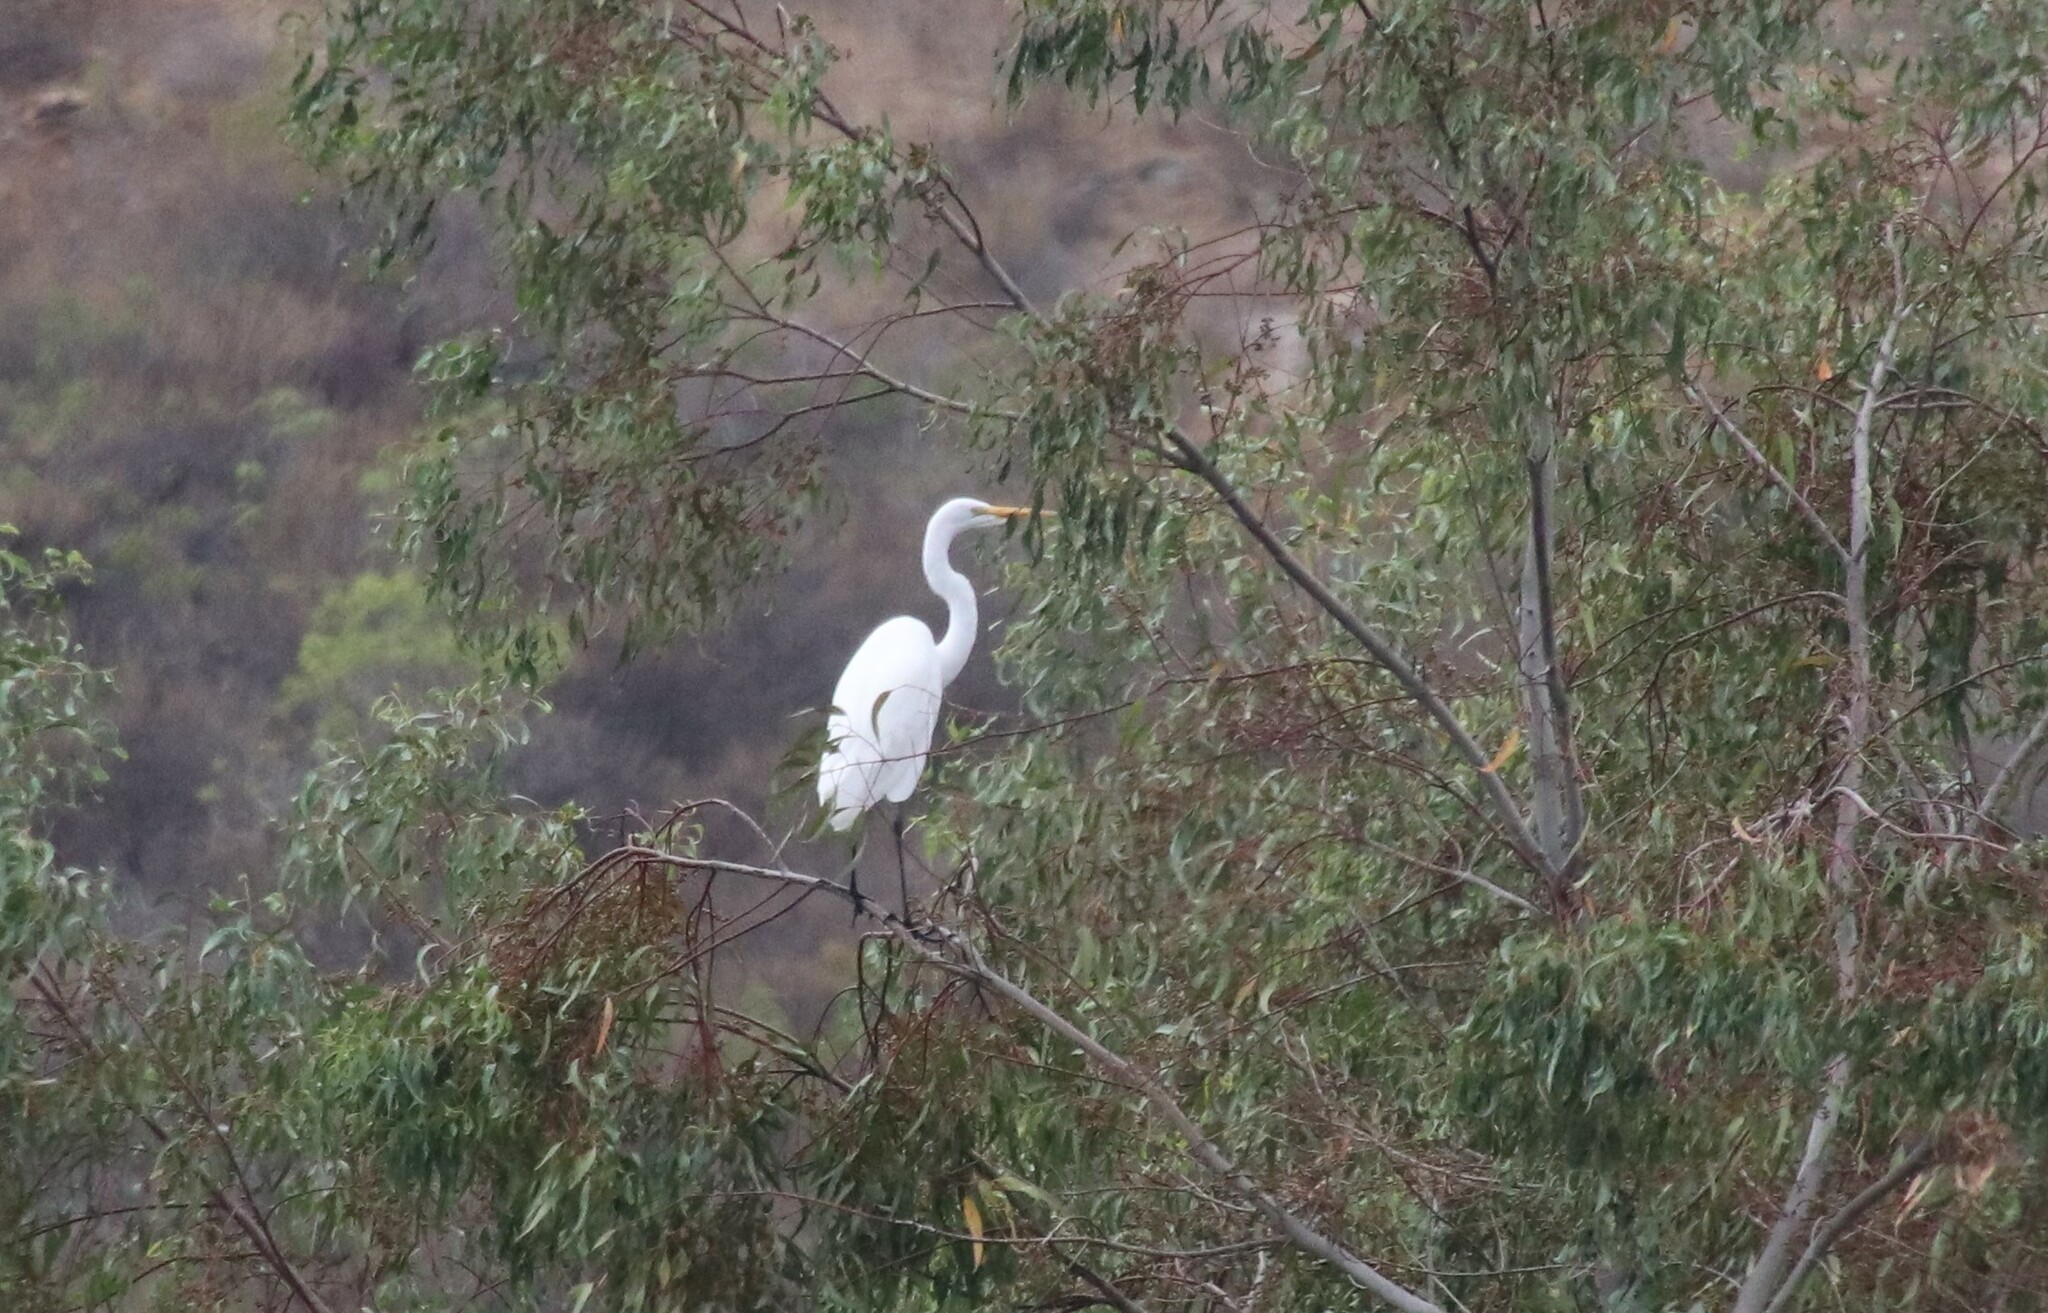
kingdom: Animalia
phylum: Chordata
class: Aves
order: Pelecaniformes
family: Ardeidae
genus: Ardea
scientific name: Ardea alba
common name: Great egret
